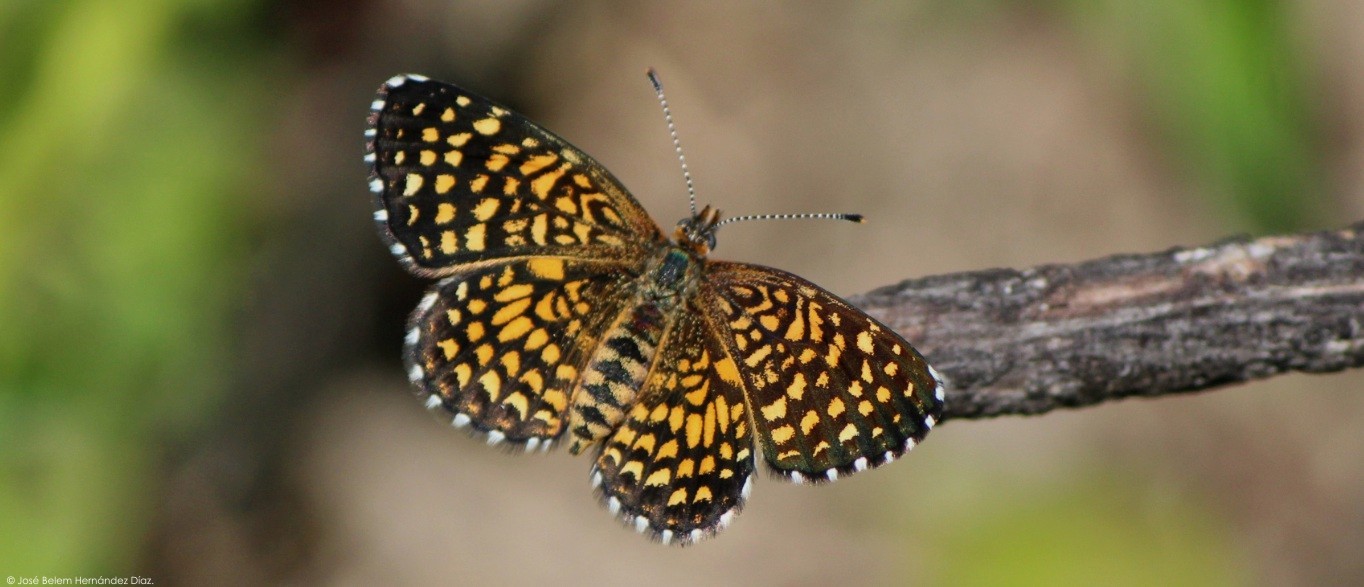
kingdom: Animalia
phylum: Arthropoda
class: Insecta
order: Lepidoptera
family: Nymphalidae
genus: Texola
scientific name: Texola elada
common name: Elada checkerspot
